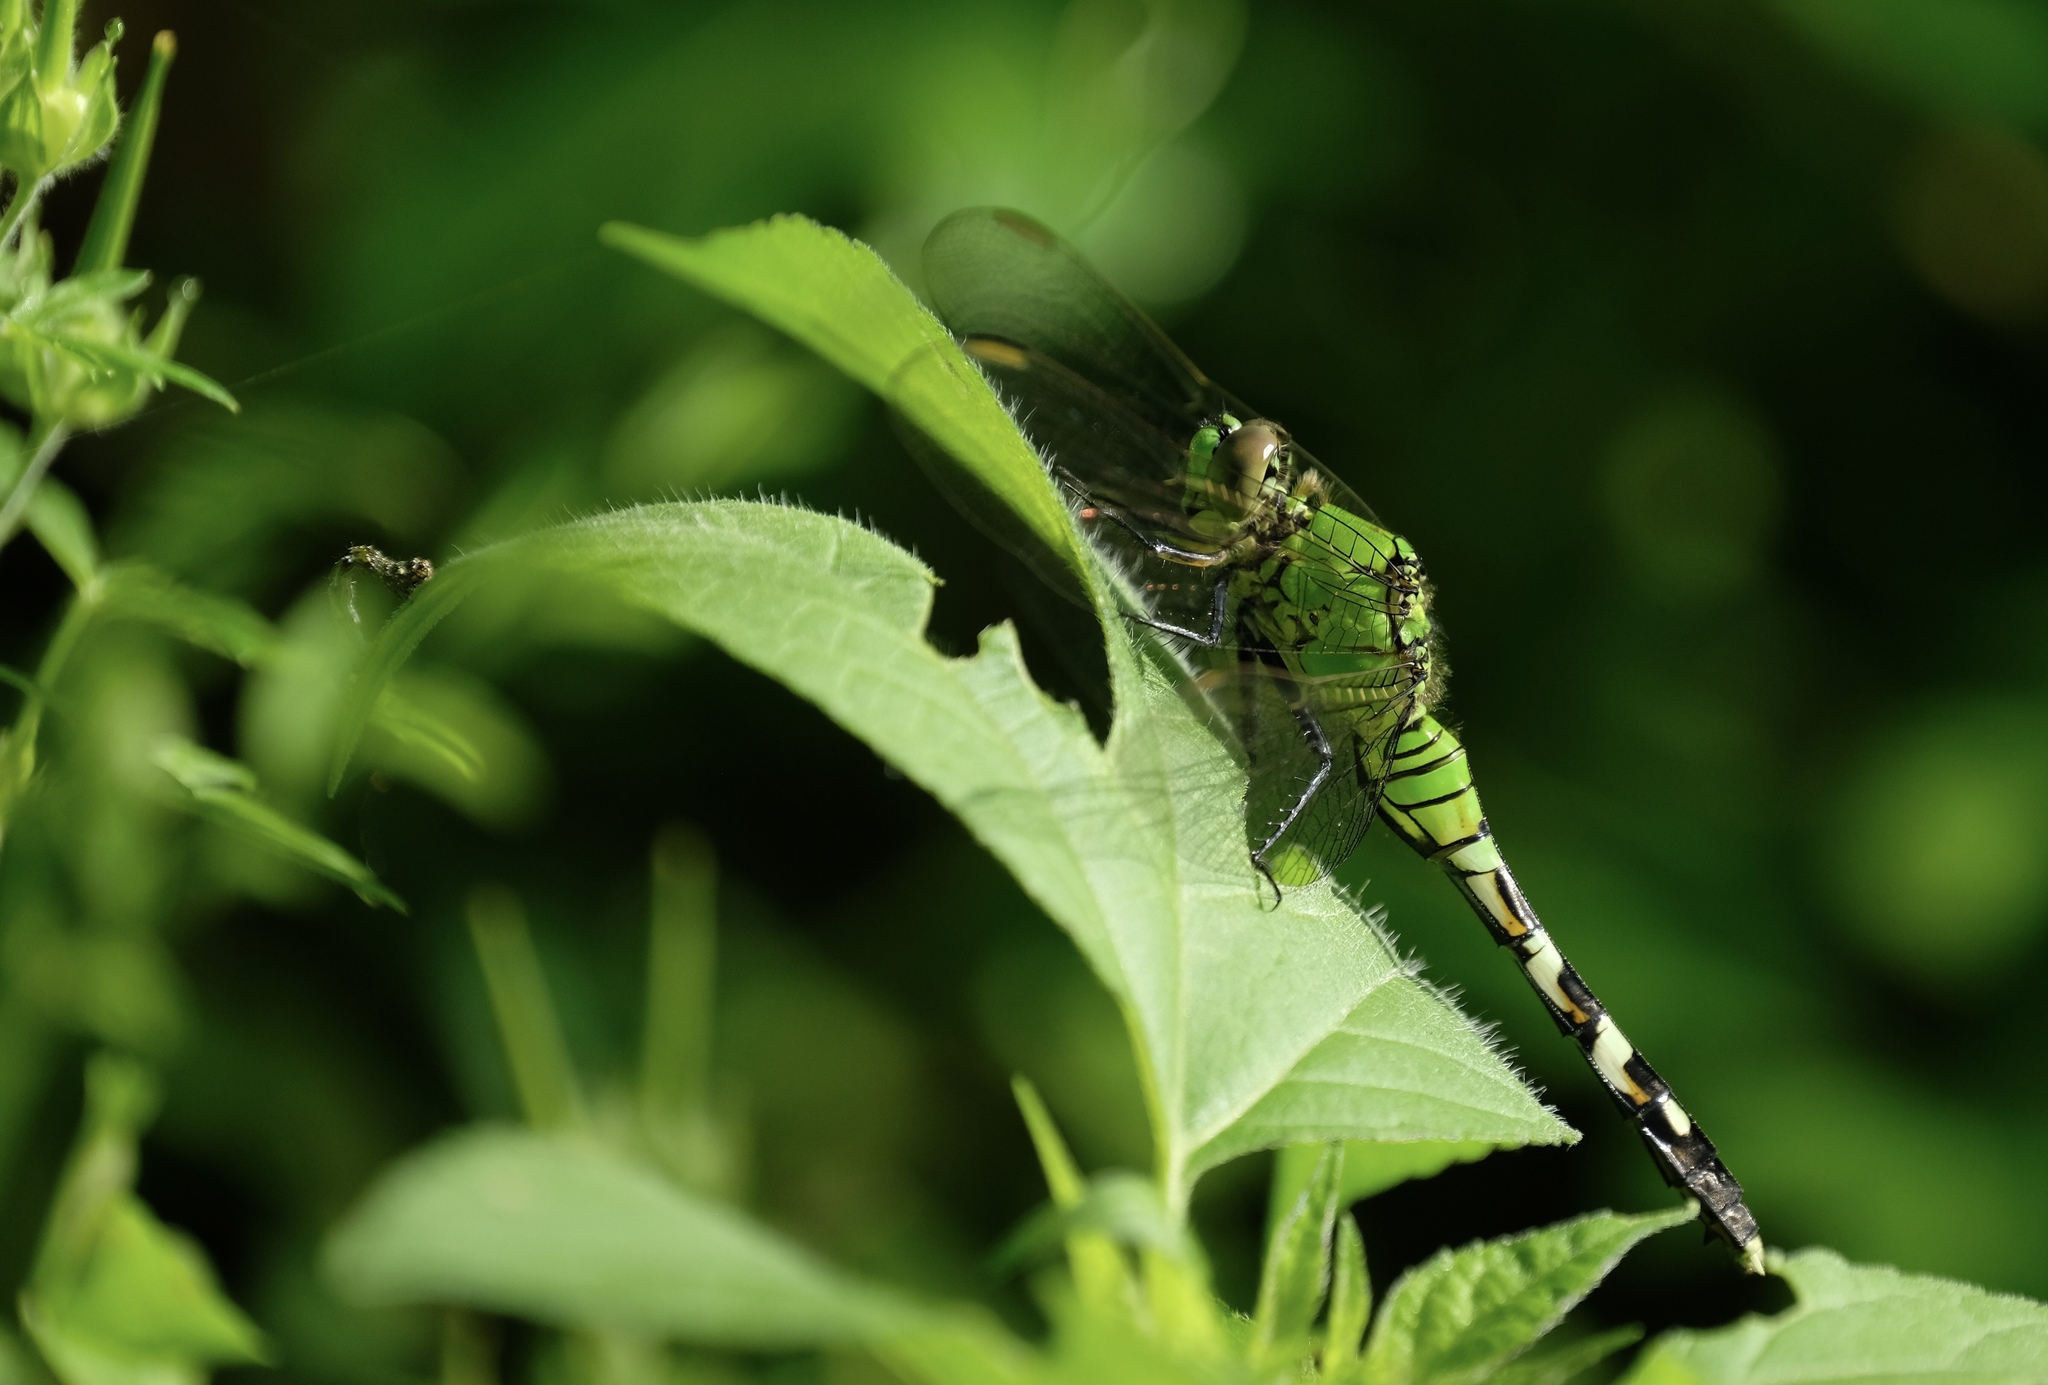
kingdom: Animalia
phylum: Arthropoda
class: Insecta
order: Odonata
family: Libellulidae
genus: Erythemis
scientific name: Erythemis simplicicollis
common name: Eastern pondhawk
